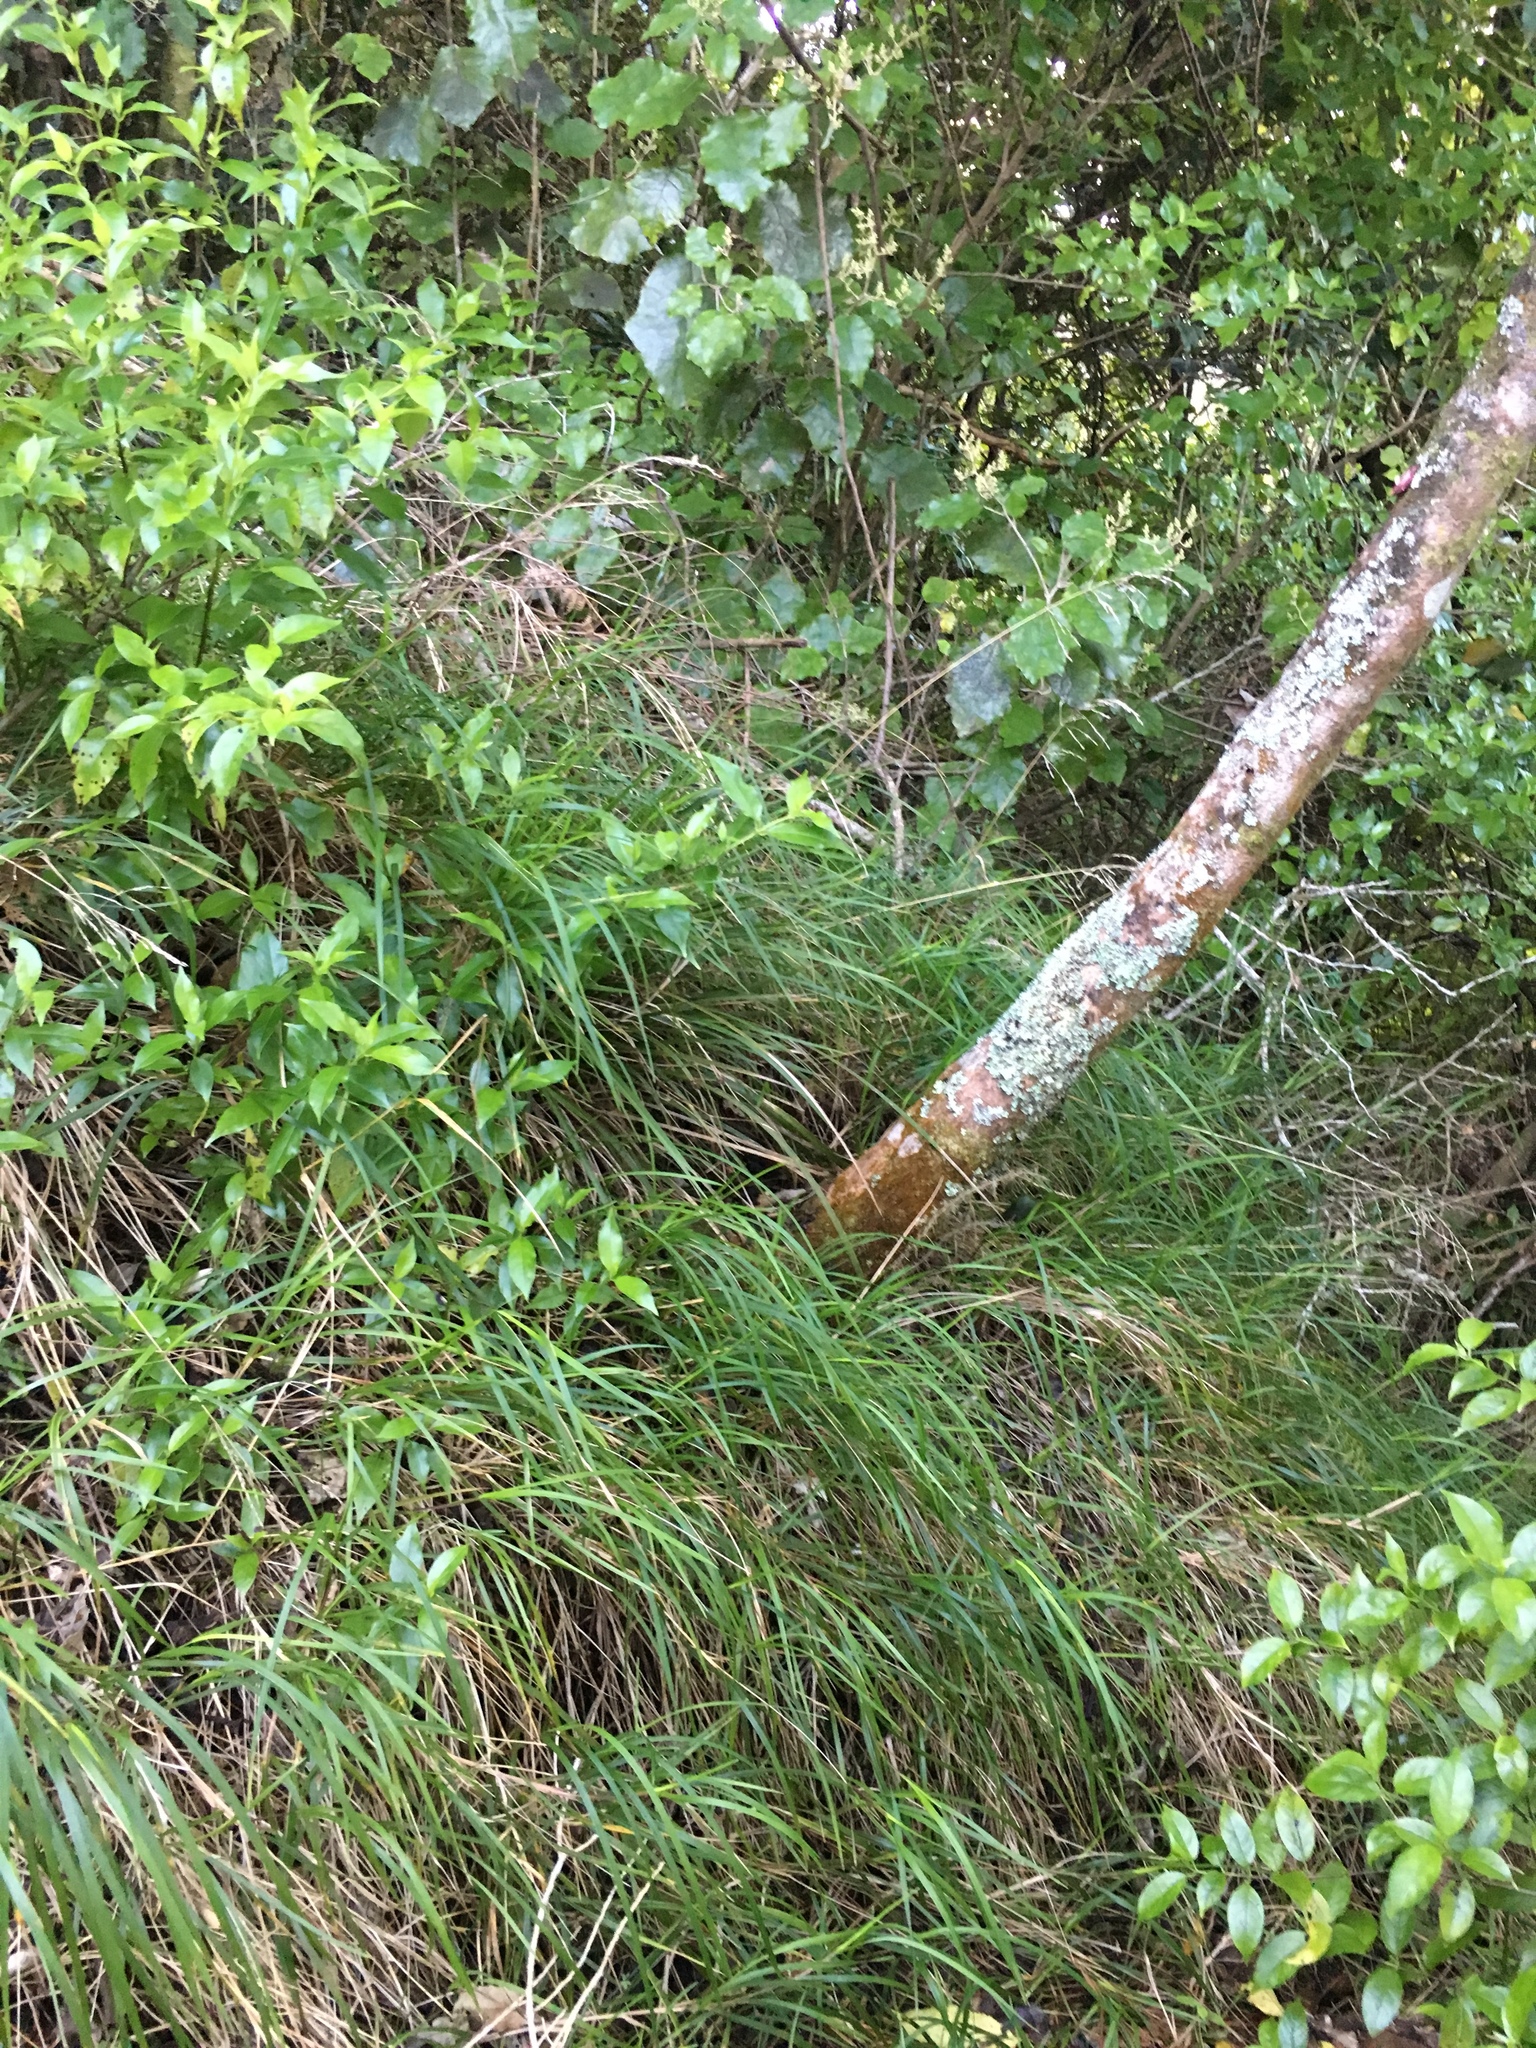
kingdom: Plantae
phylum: Tracheophyta
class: Liliopsida
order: Poales
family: Poaceae
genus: Poa
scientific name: Poa anceps
